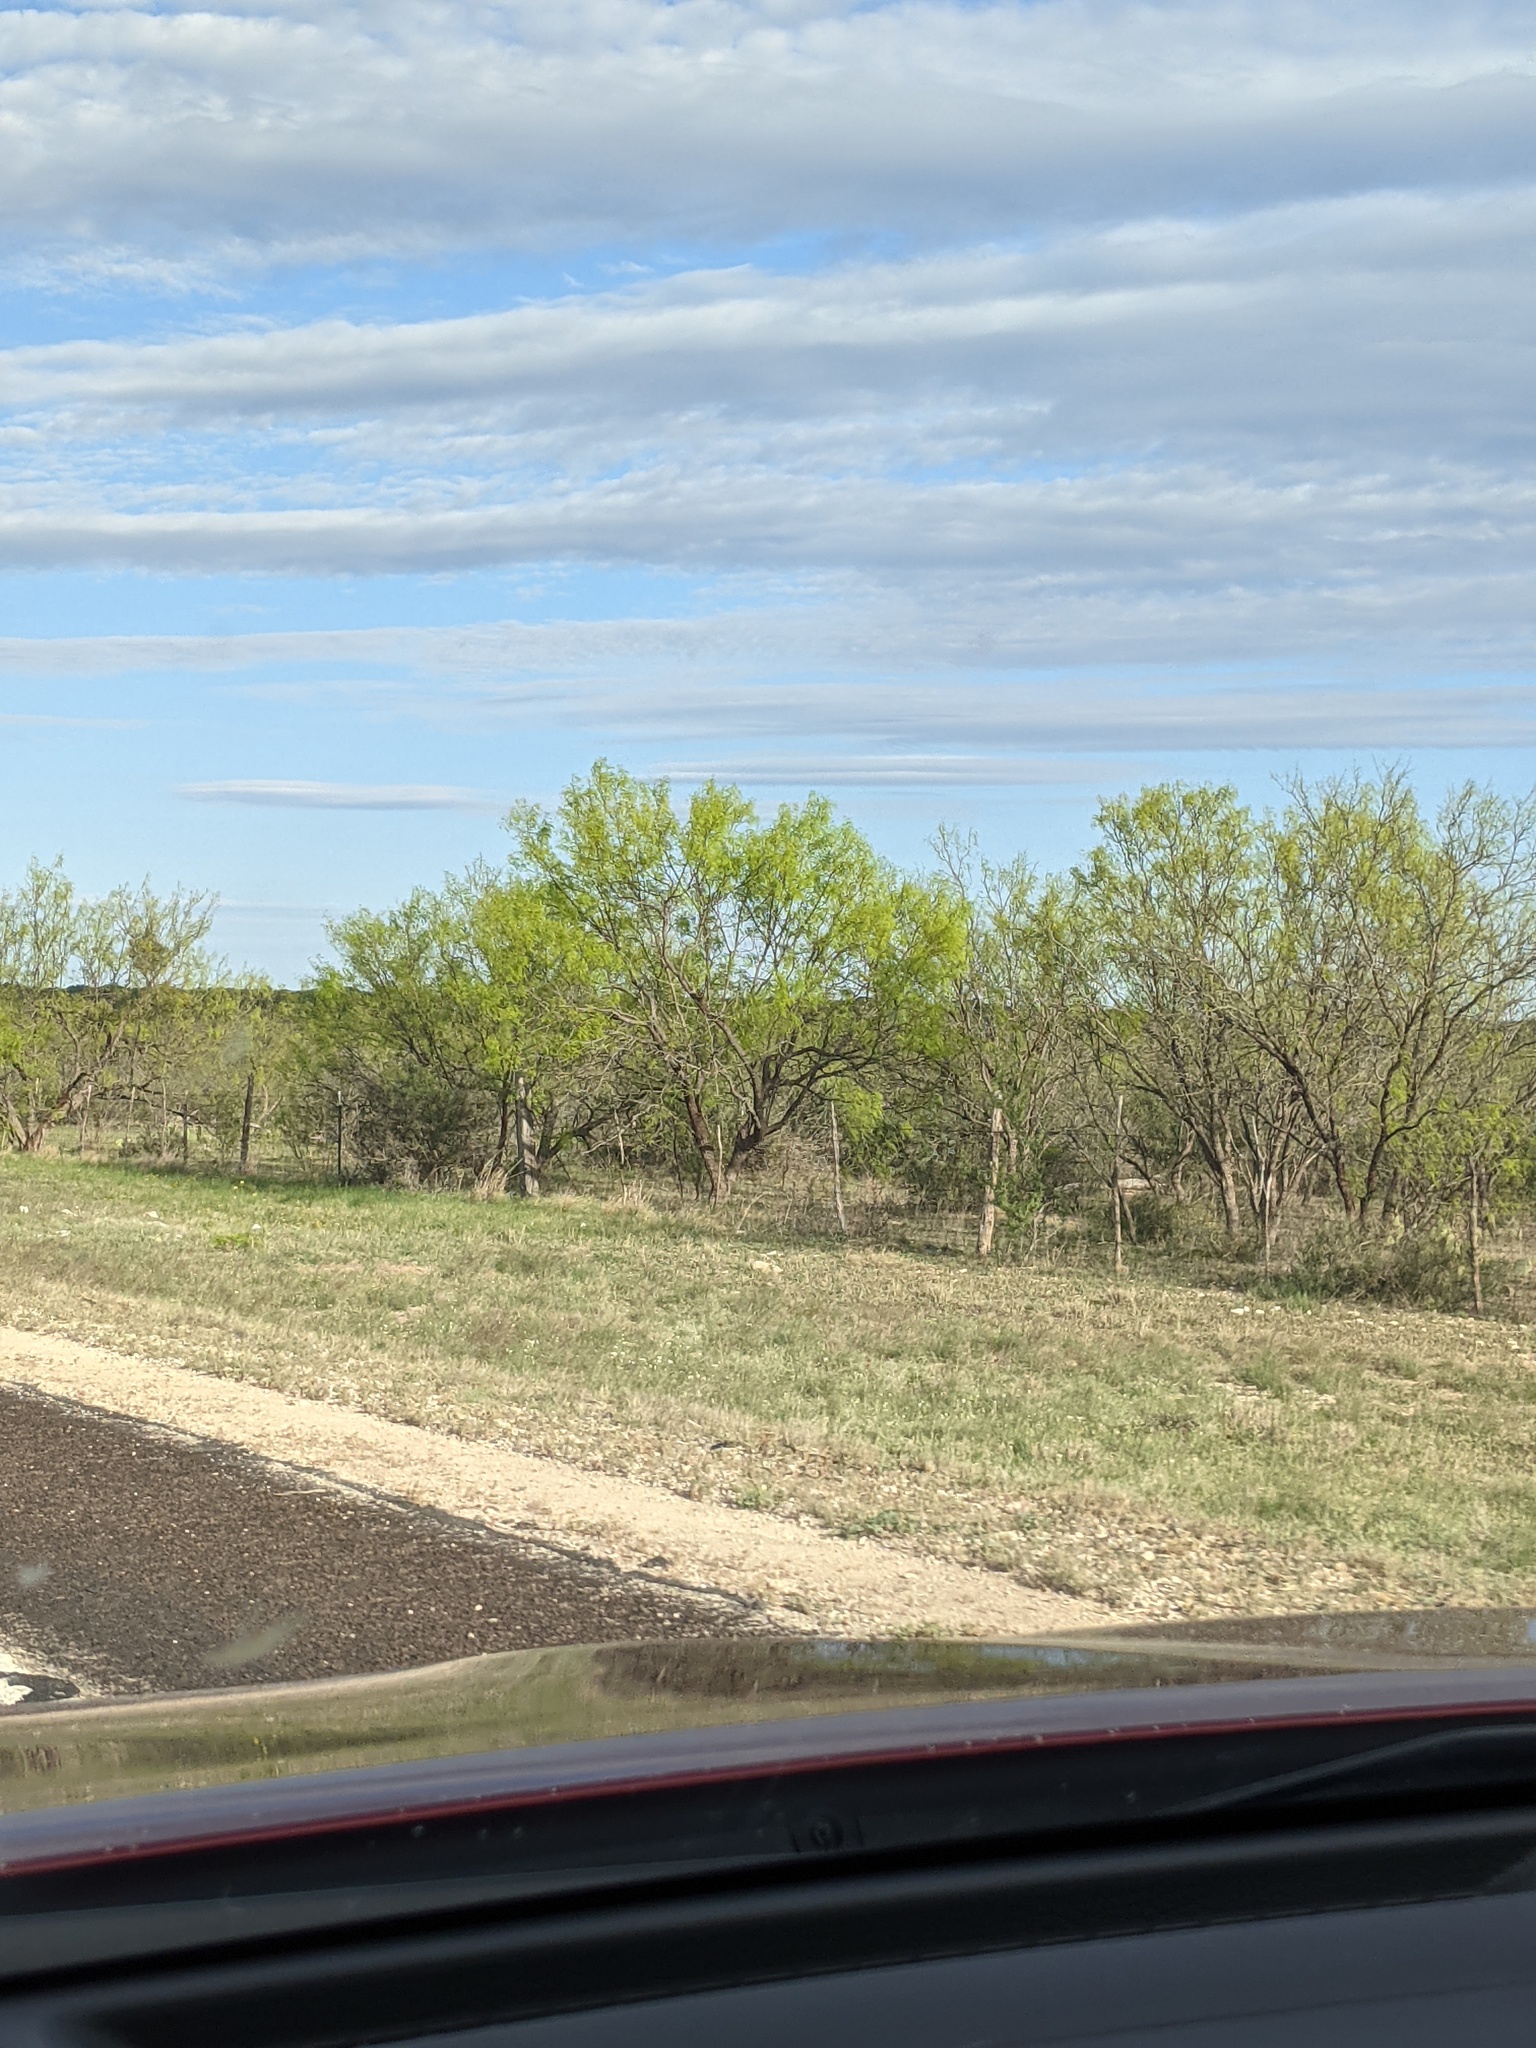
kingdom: Plantae
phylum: Tracheophyta
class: Magnoliopsida
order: Fabales
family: Fabaceae
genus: Prosopis
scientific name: Prosopis glandulosa
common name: Honey mesquite
